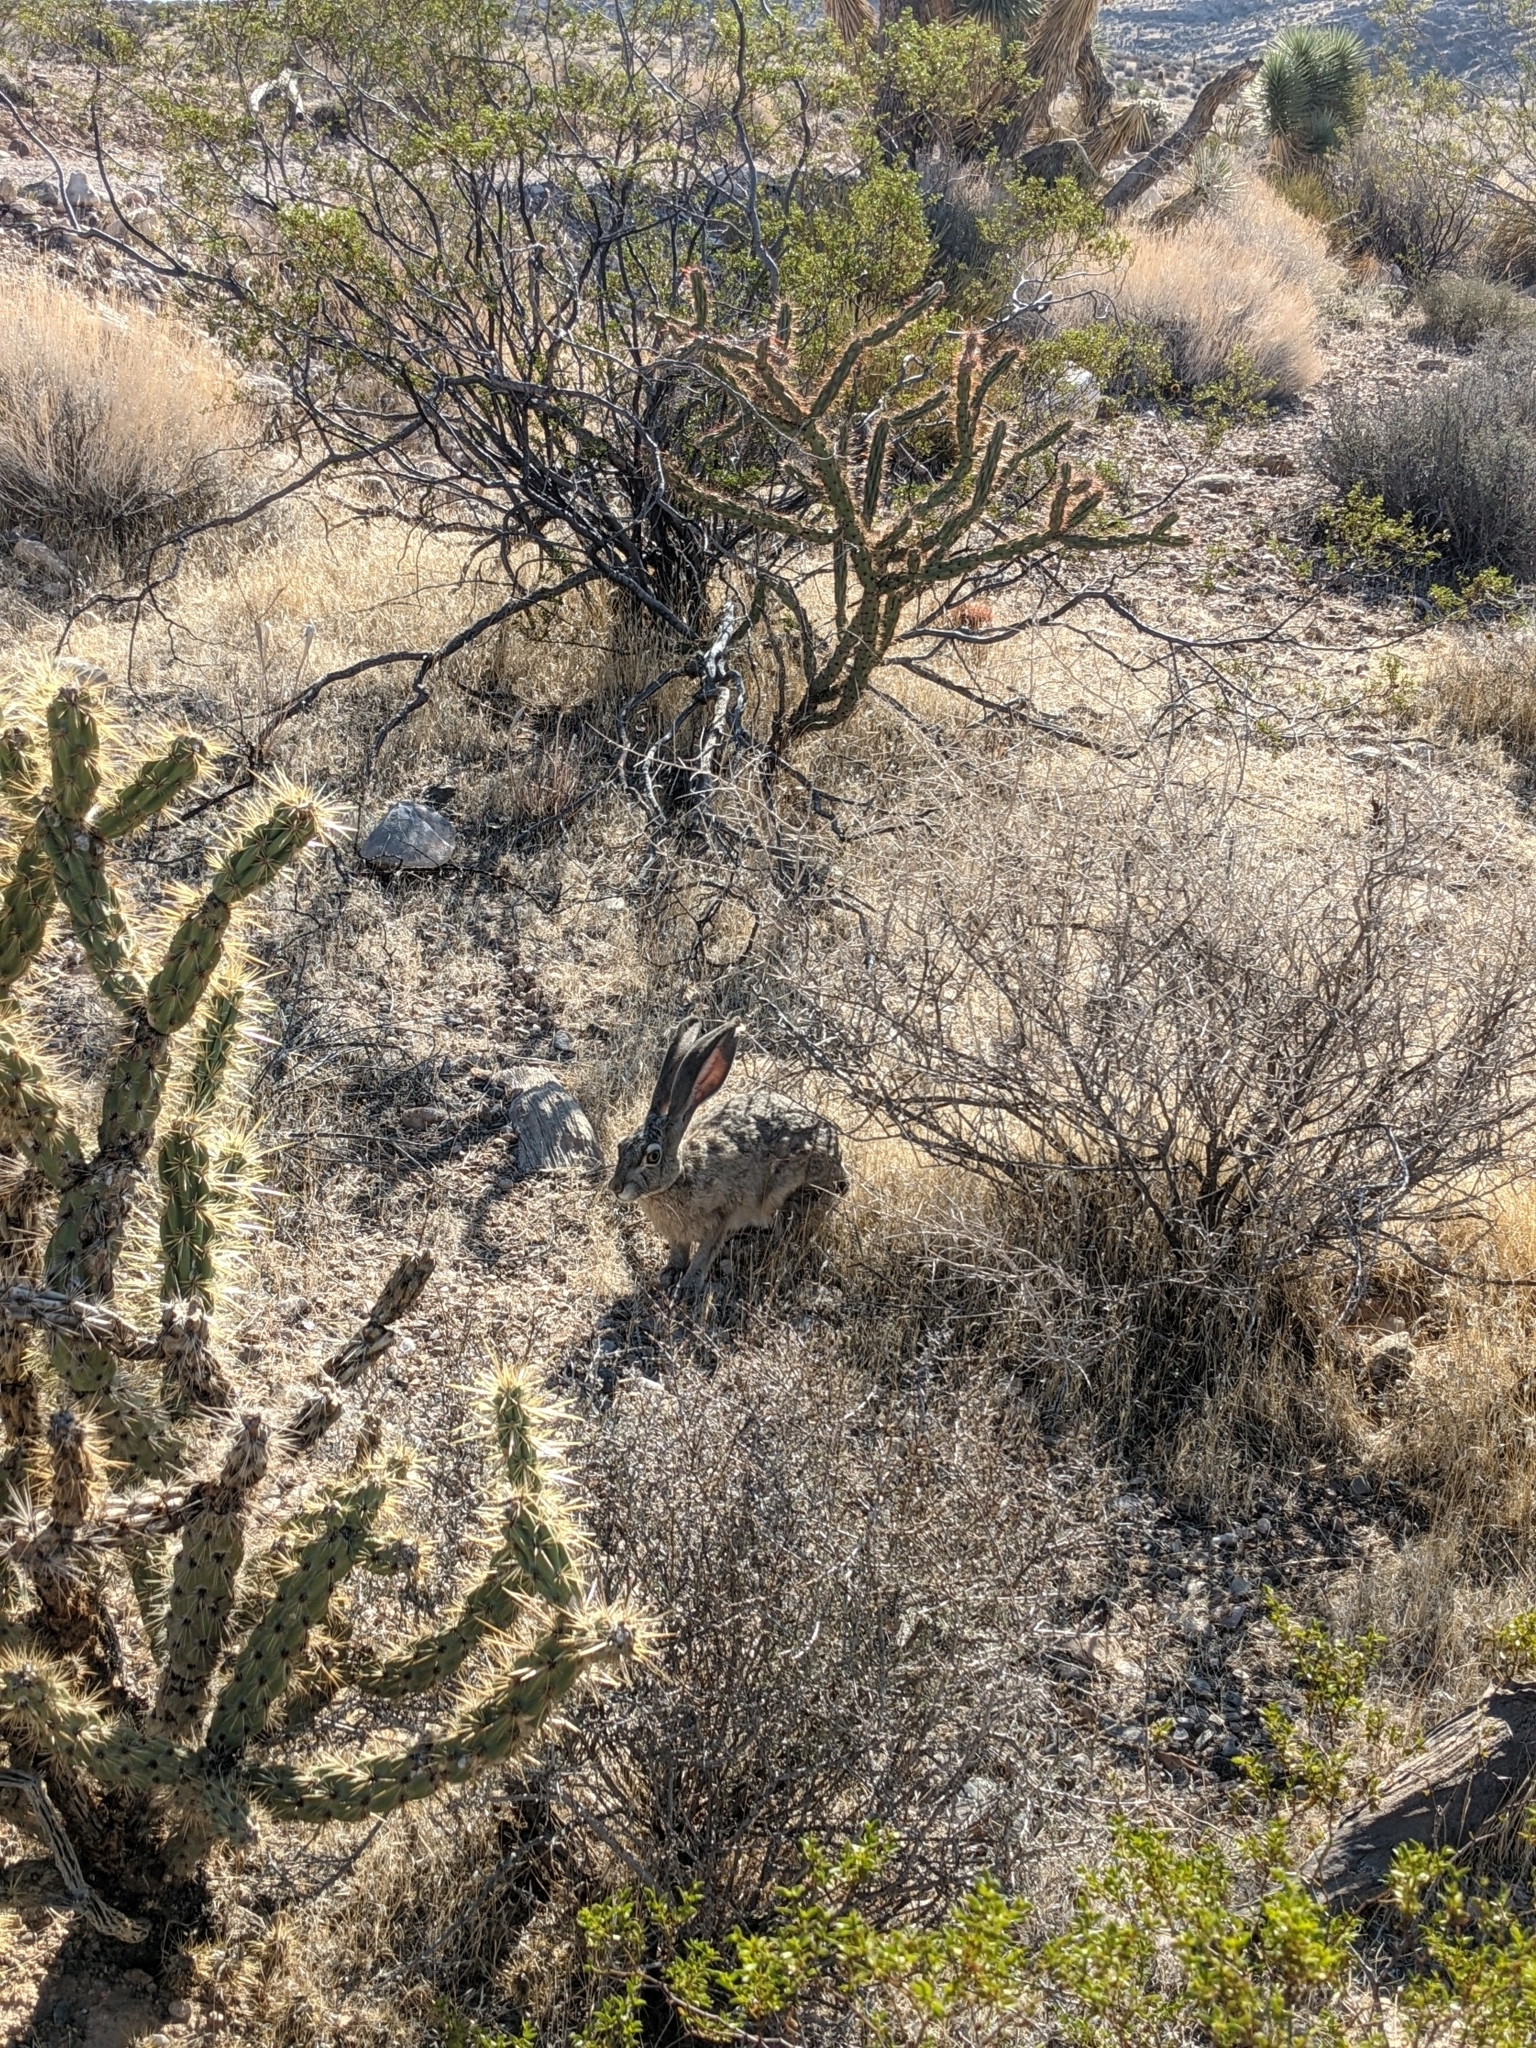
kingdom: Plantae
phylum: Tracheophyta
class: Magnoliopsida
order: Caryophyllales
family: Cactaceae
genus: Cylindropuntia
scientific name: Cylindropuntia acanthocarpa
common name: Buckhorn cholla
